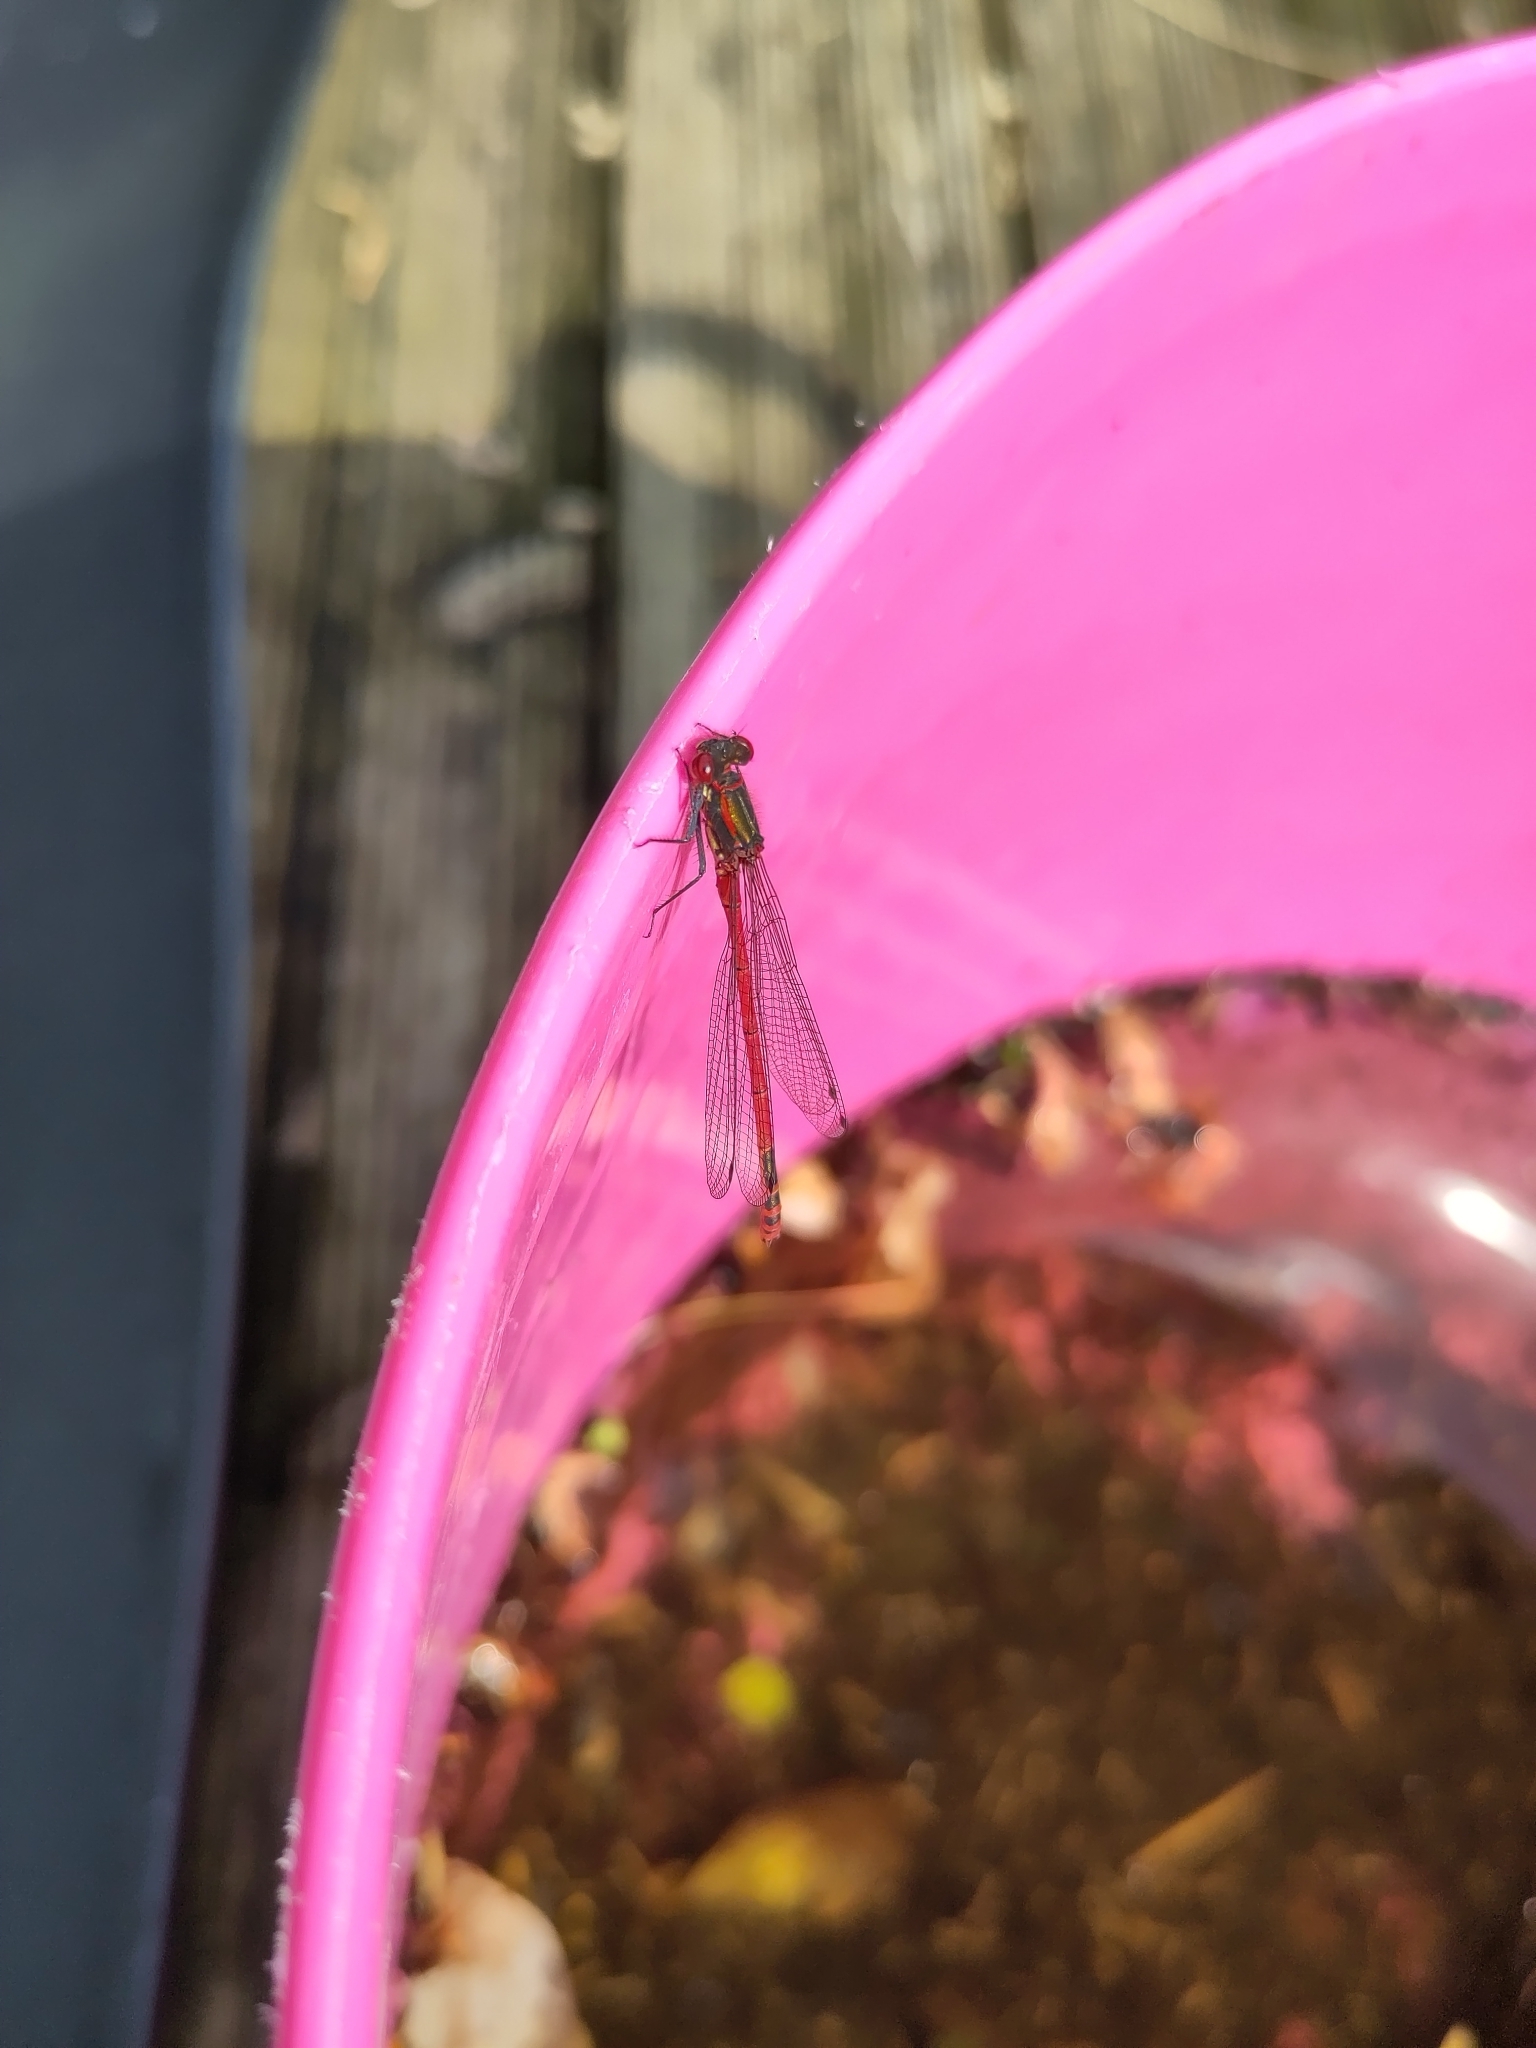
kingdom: Animalia
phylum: Arthropoda
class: Insecta
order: Odonata
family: Coenagrionidae
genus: Pyrrhosoma
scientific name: Pyrrhosoma nymphula
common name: Large red damsel
